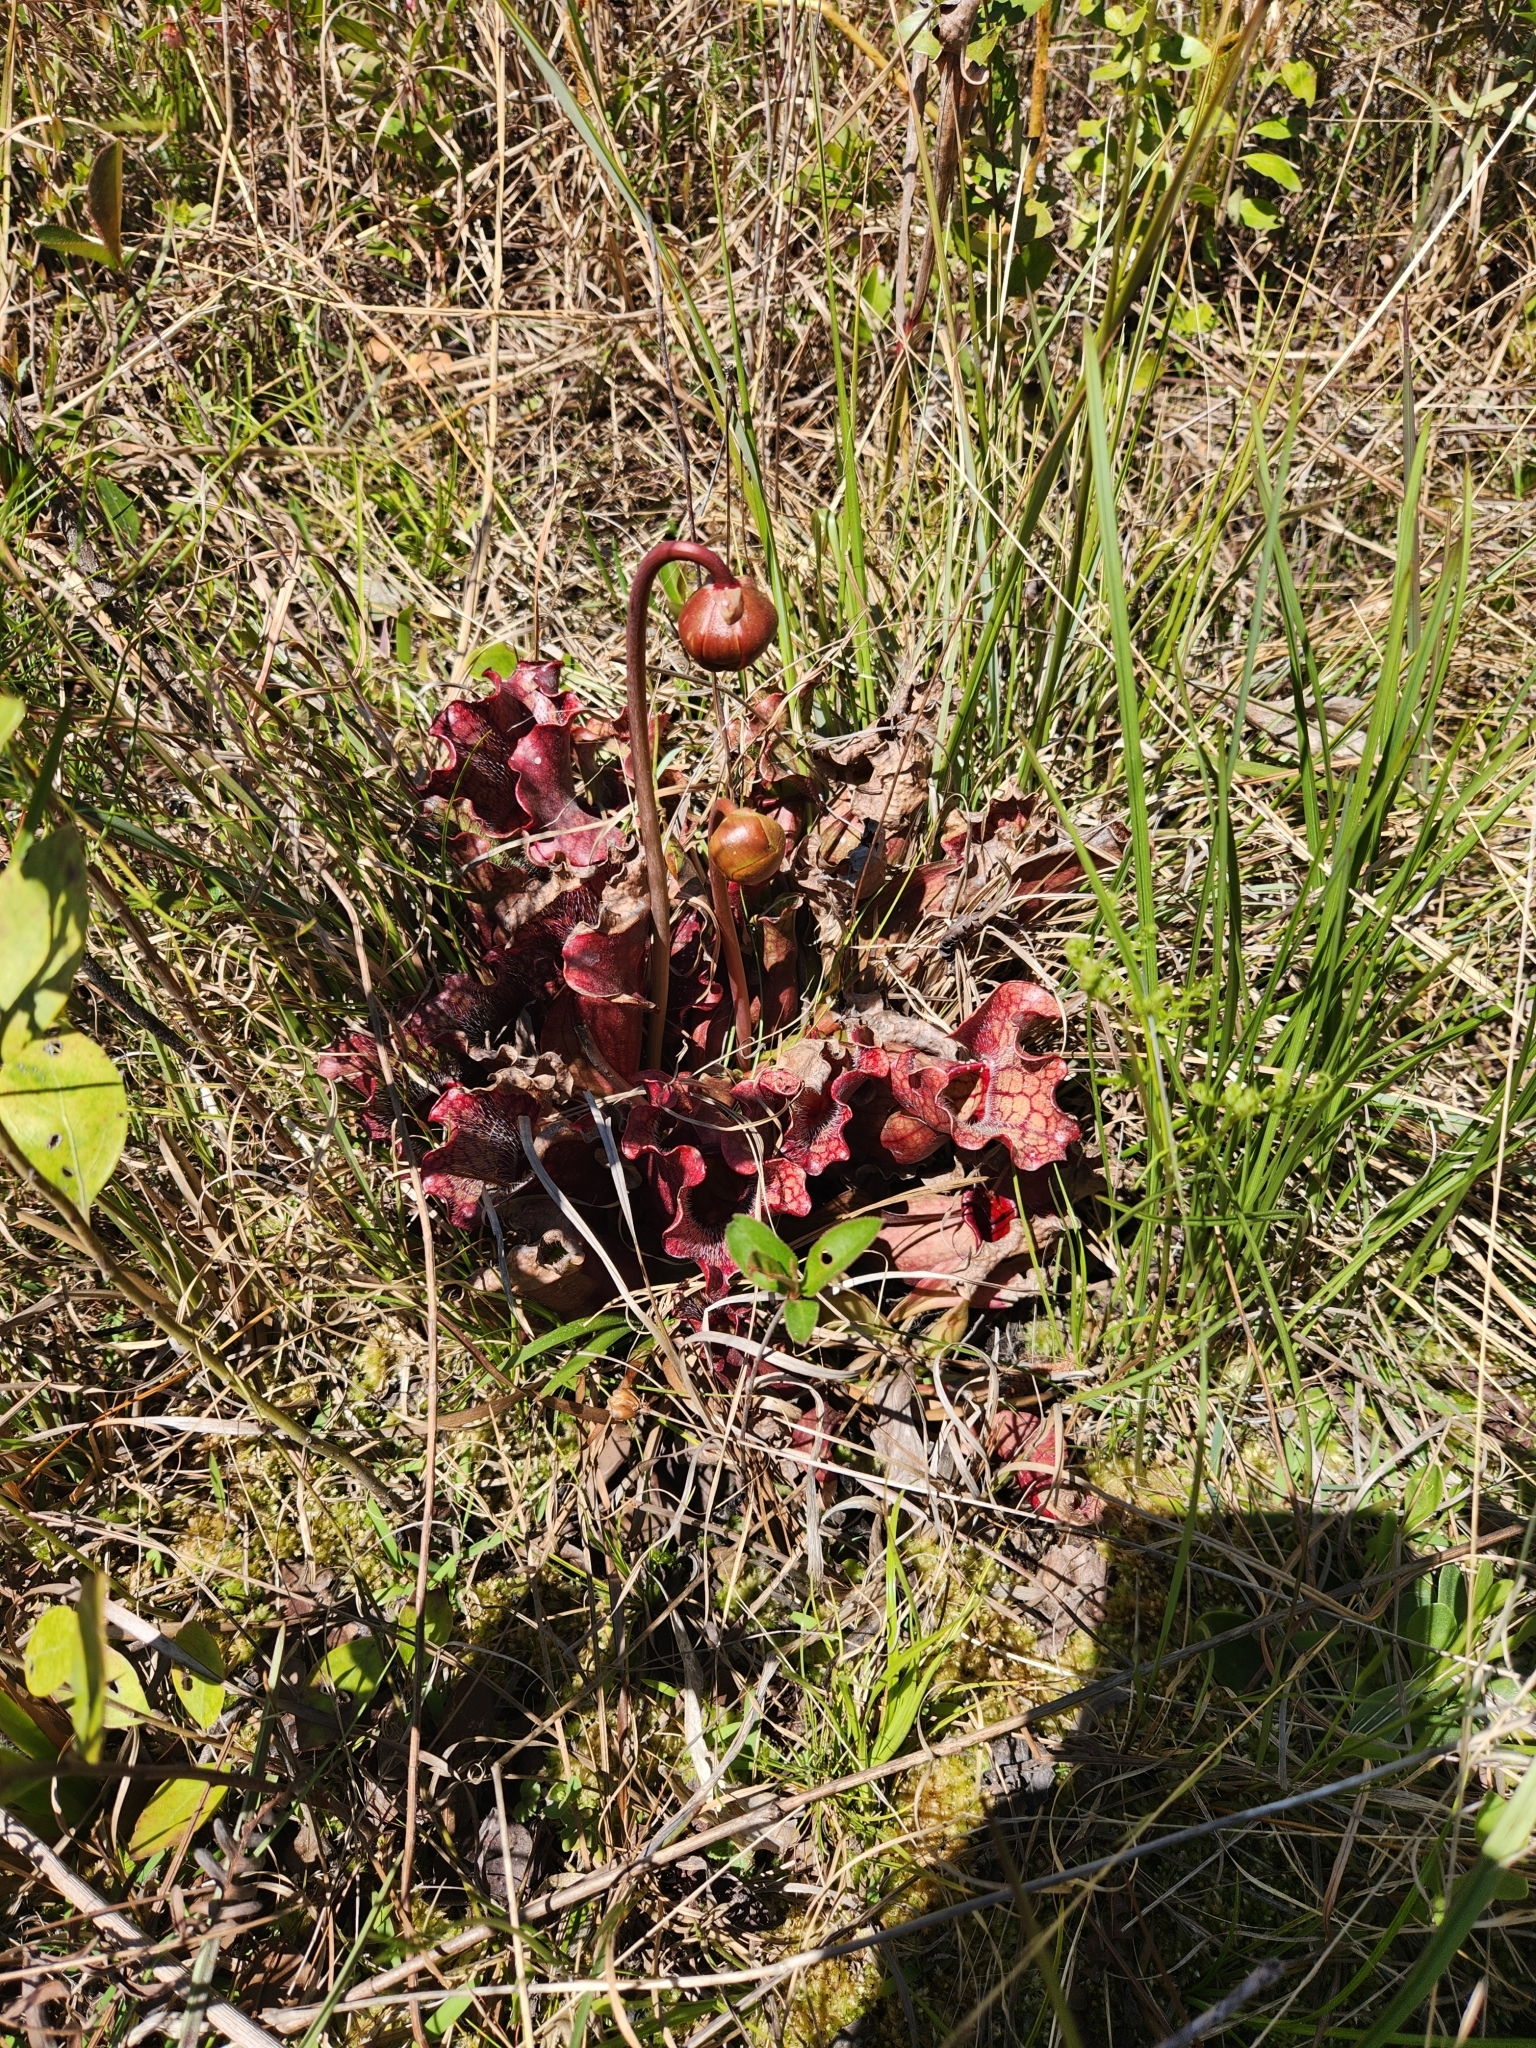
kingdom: Plantae
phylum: Tracheophyta
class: Magnoliopsida
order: Ericales
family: Sarraceniaceae
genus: Sarracenia
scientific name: Sarracenia purpurea
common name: Pitcherplant
